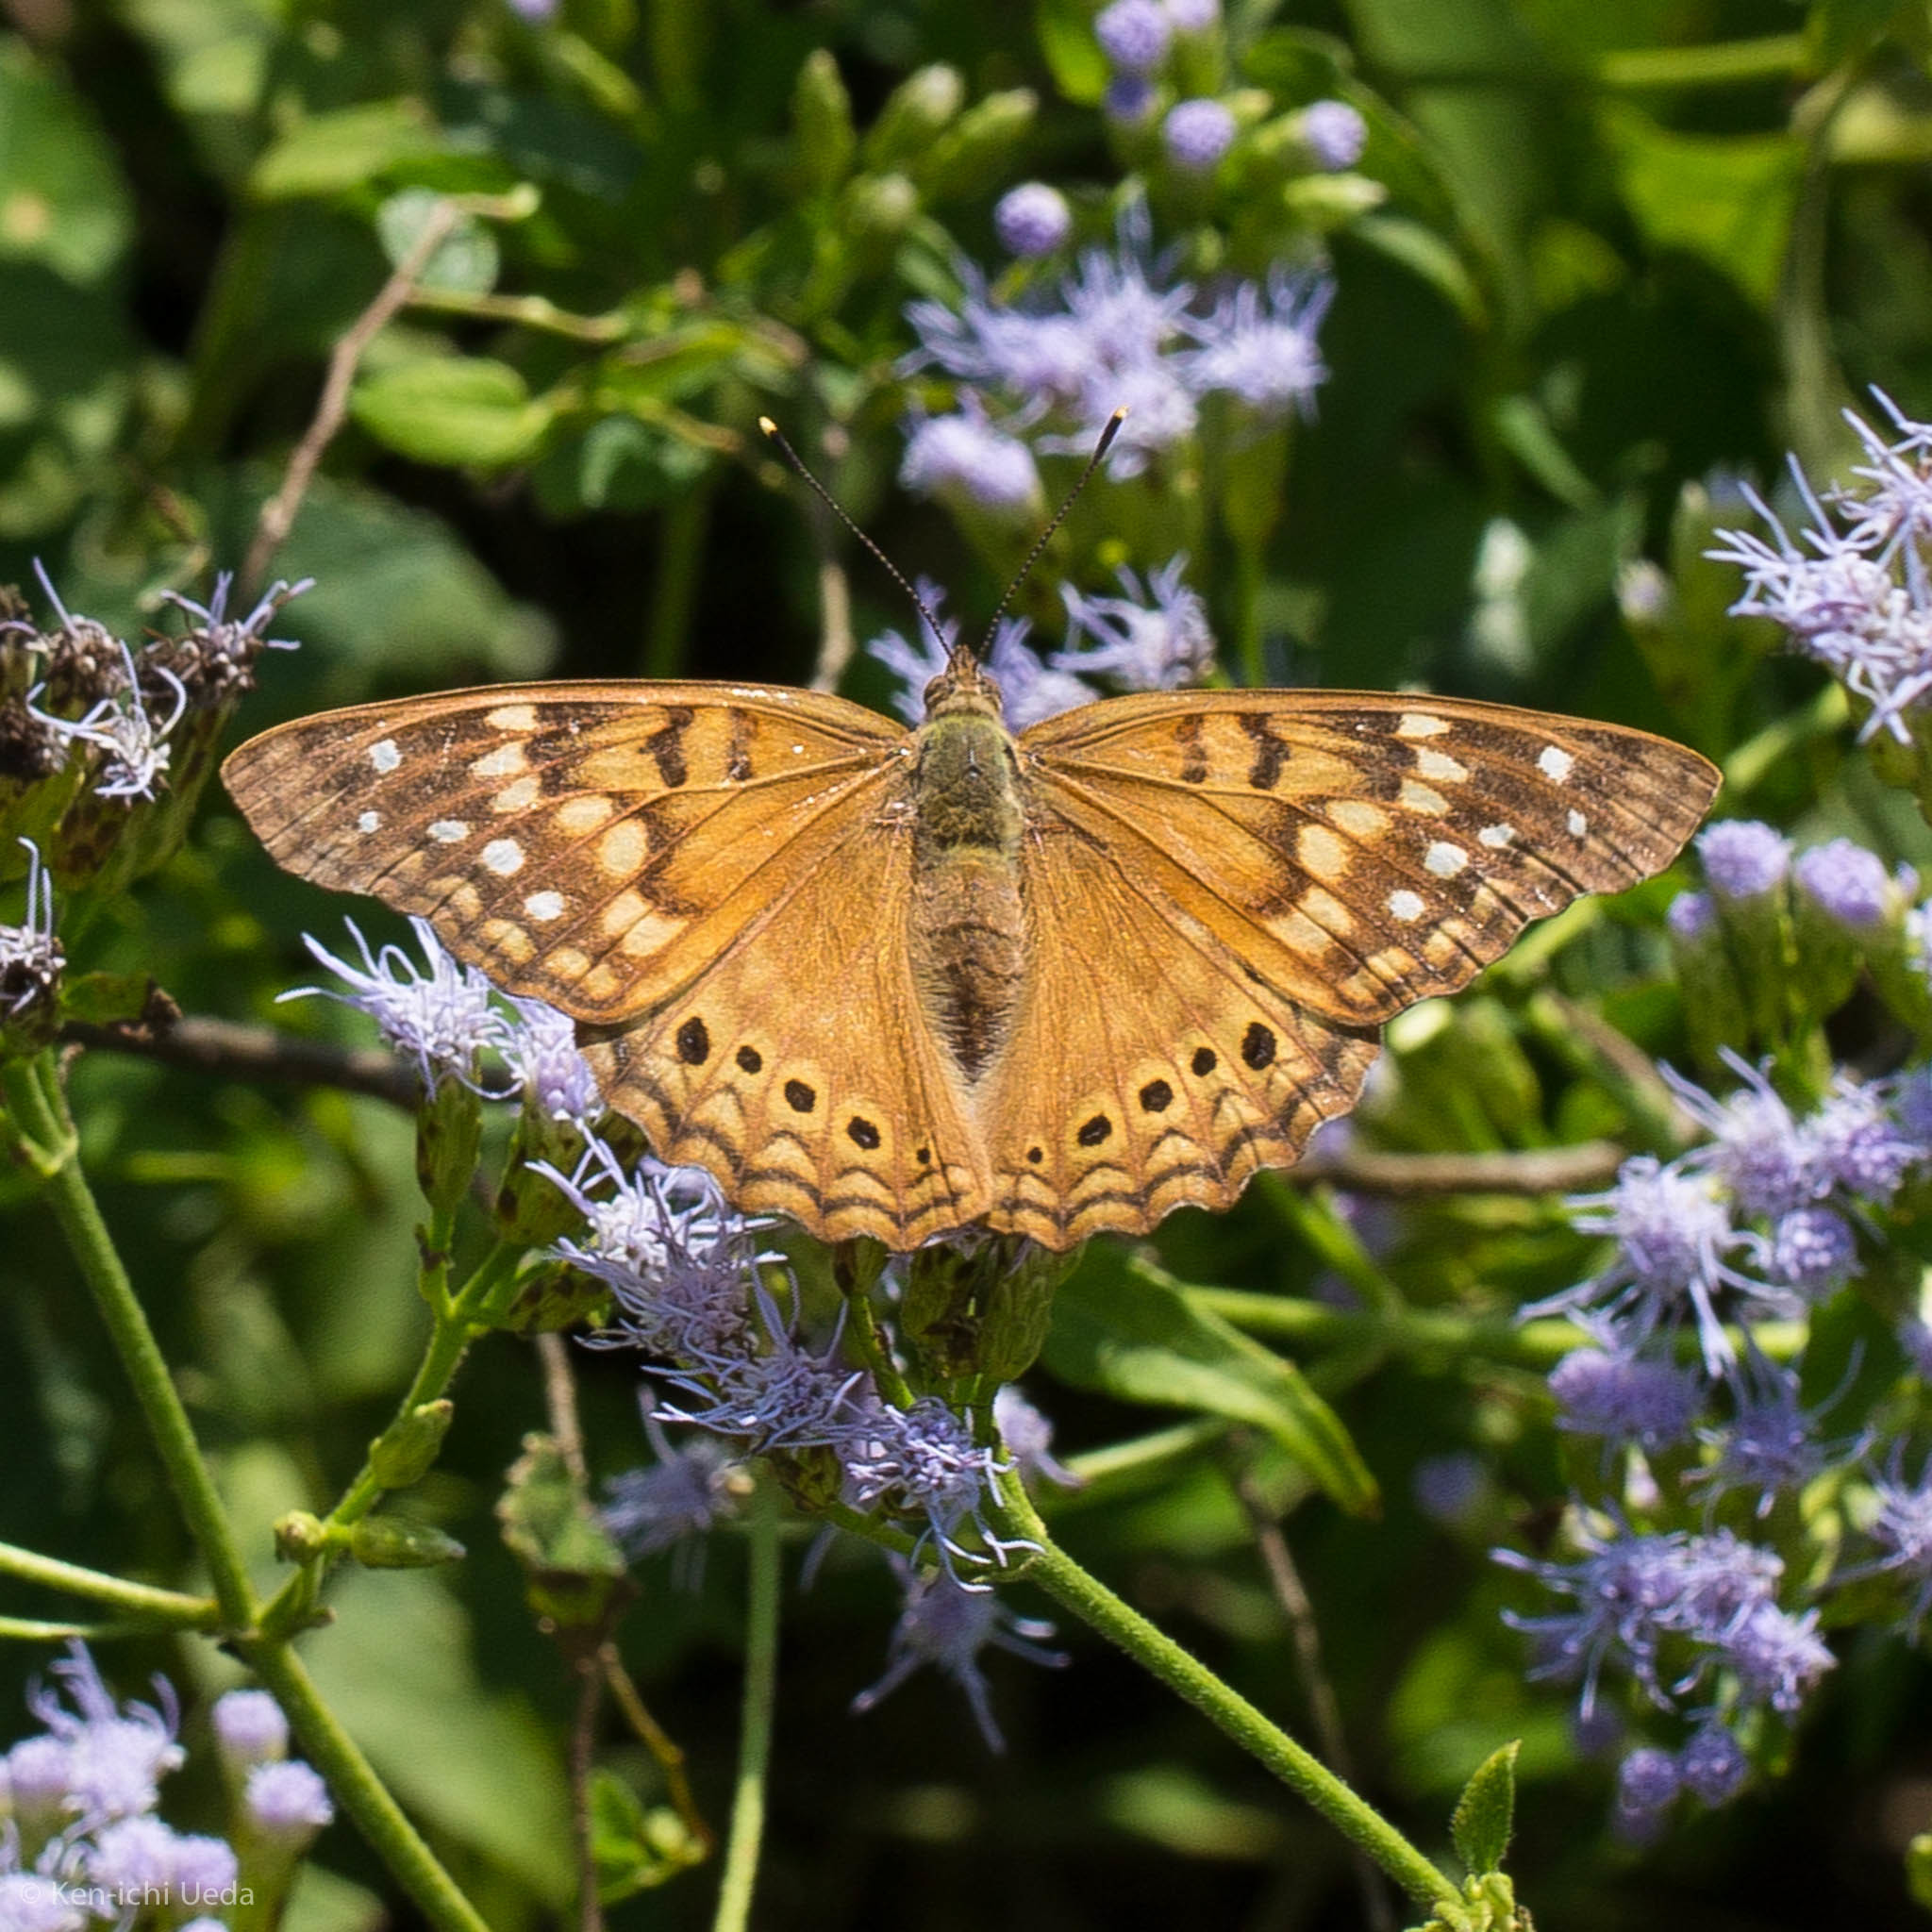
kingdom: Animalia
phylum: Arthropoda
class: Insecta
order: Lepidoptera
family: Nymphalidae
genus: Asterocampa
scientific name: Asterocampa clyton
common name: Tawny emperor
